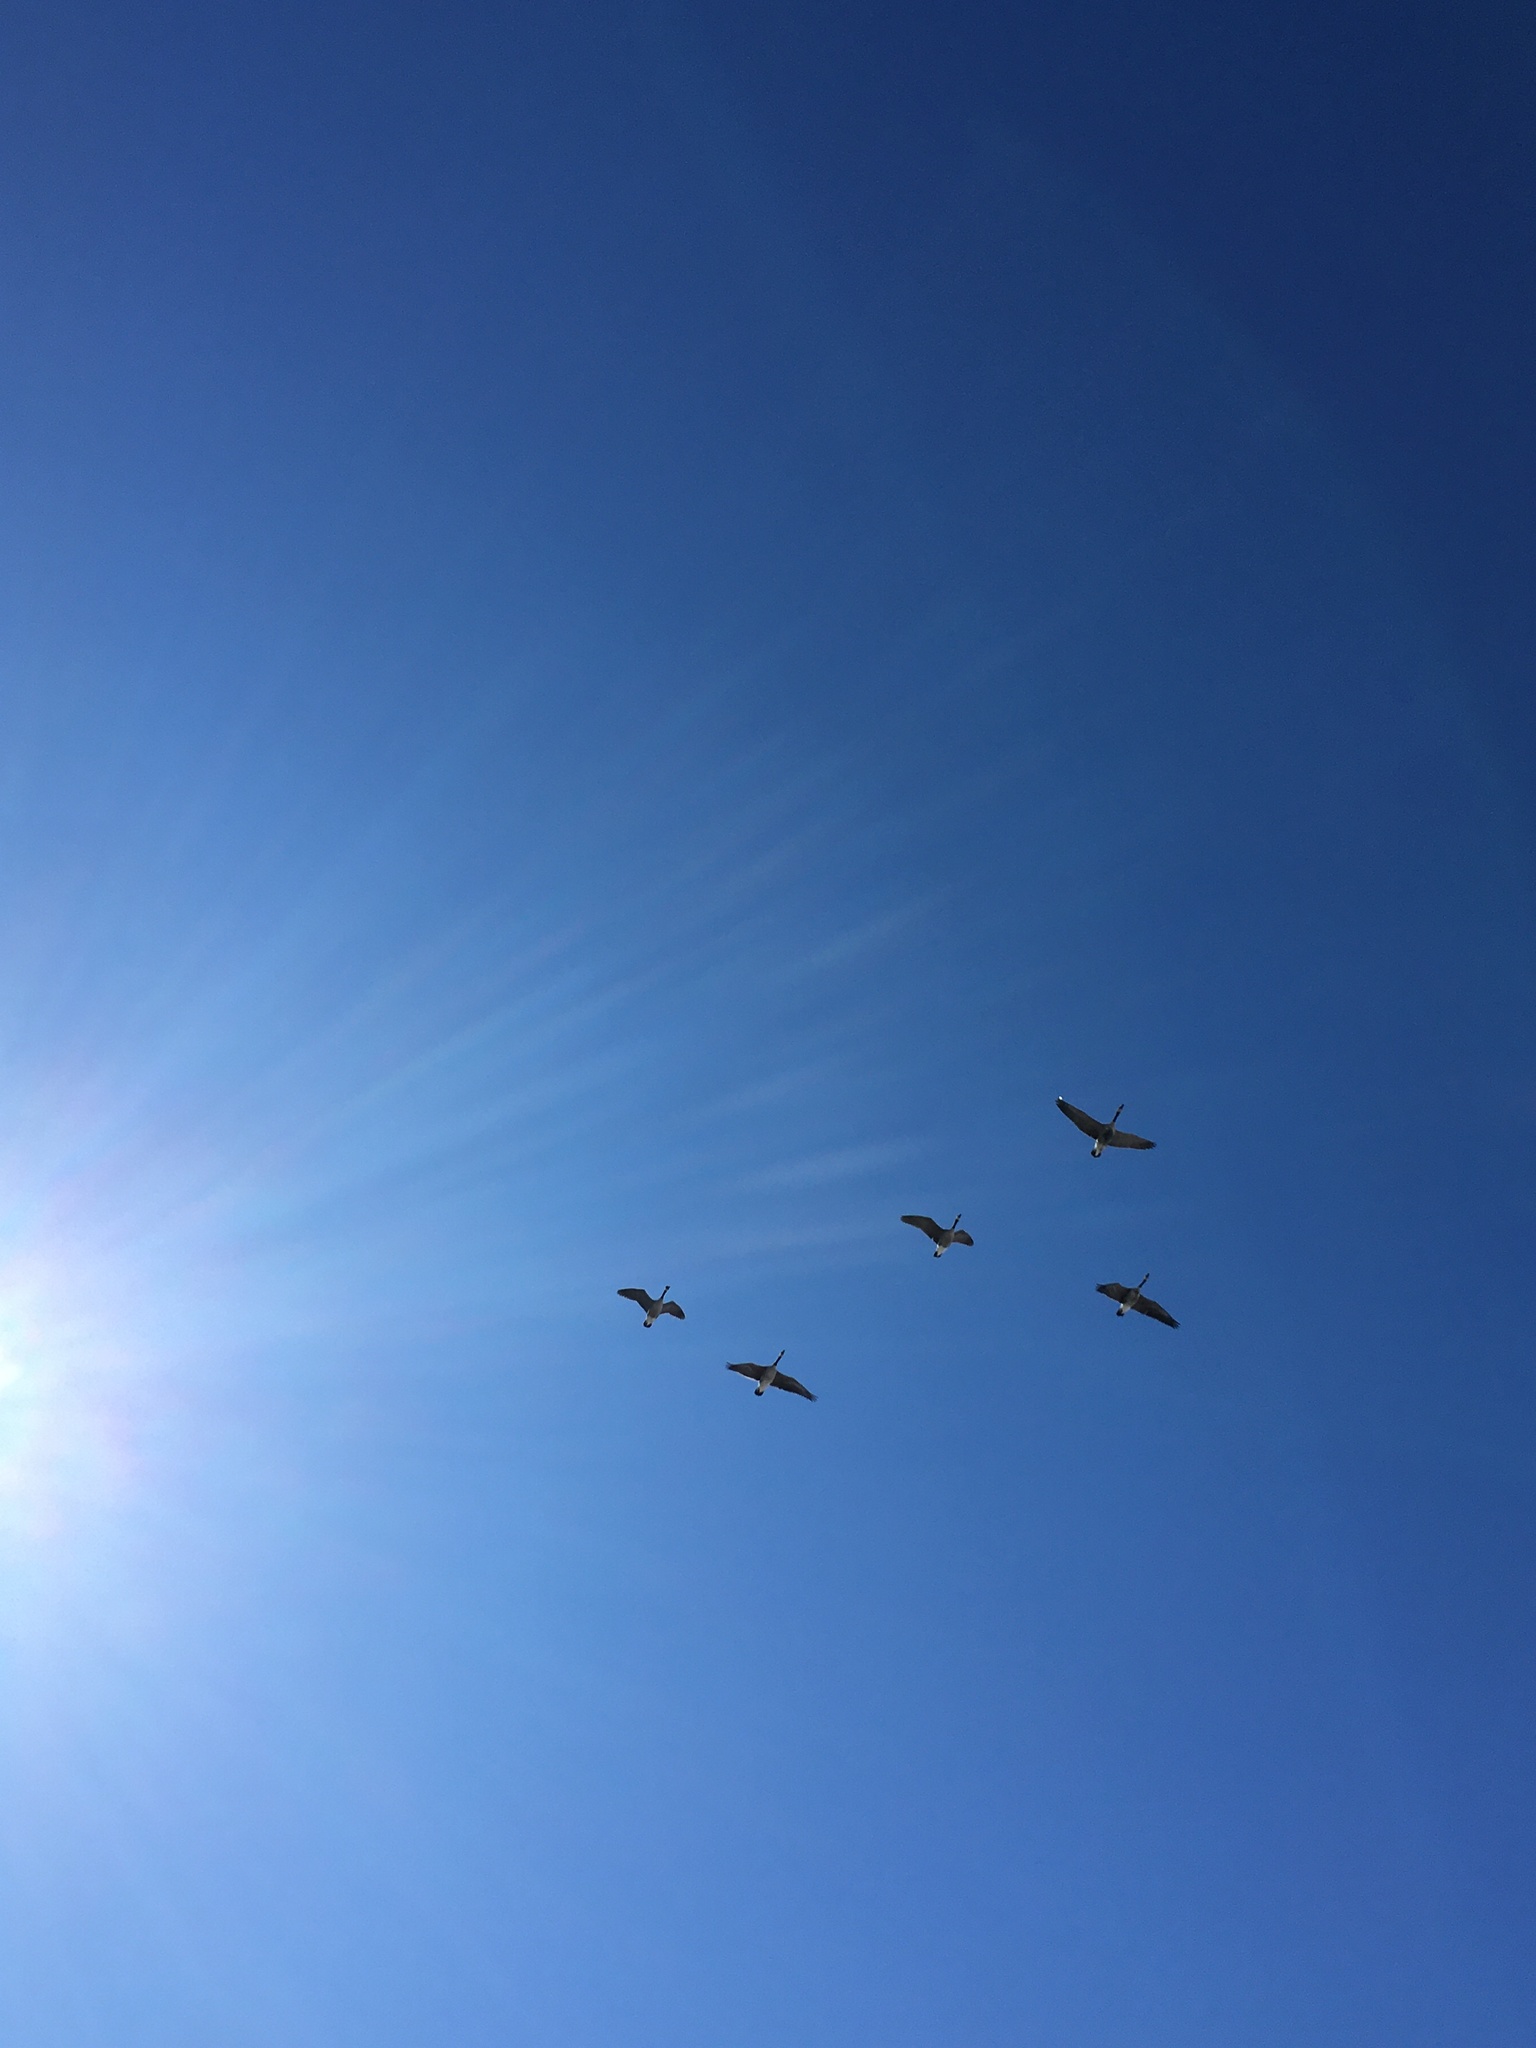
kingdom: Animalia
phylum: Chordata
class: Aves
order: Anseriformes
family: Anatidae
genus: Branta
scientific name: Branta canadensis
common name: Canada goose
